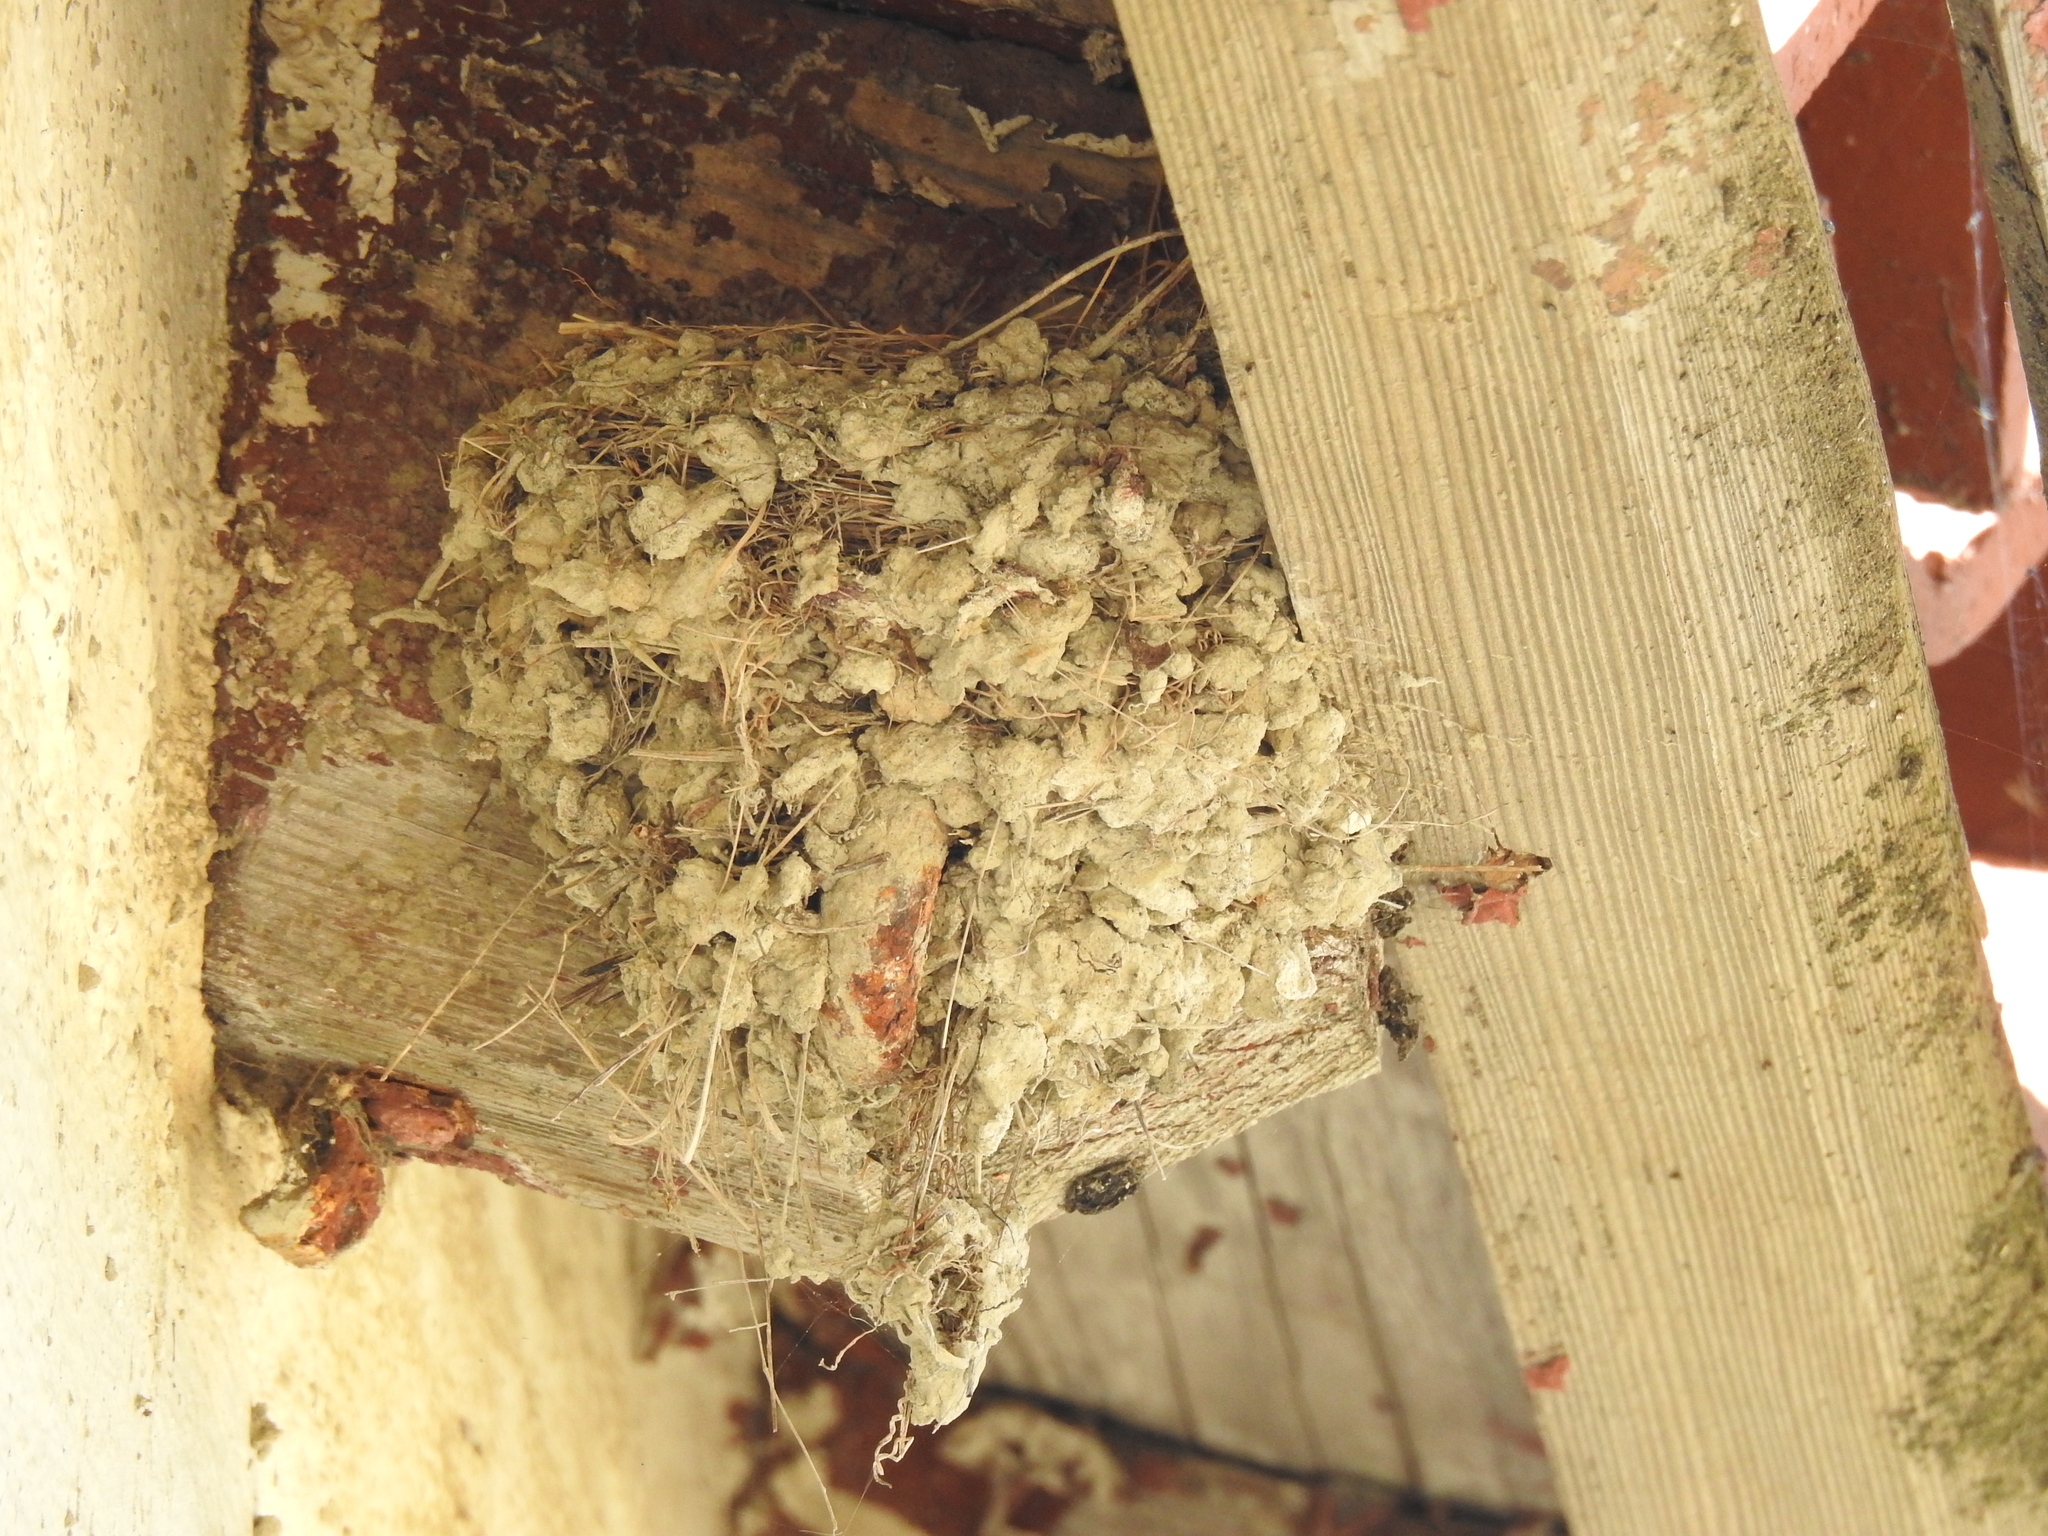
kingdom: Animalia
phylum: Chordata
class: Aves
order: Passeriformes
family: Hirundinidae
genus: Hirundo
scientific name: Hirundo rustica
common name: Barn swallow
